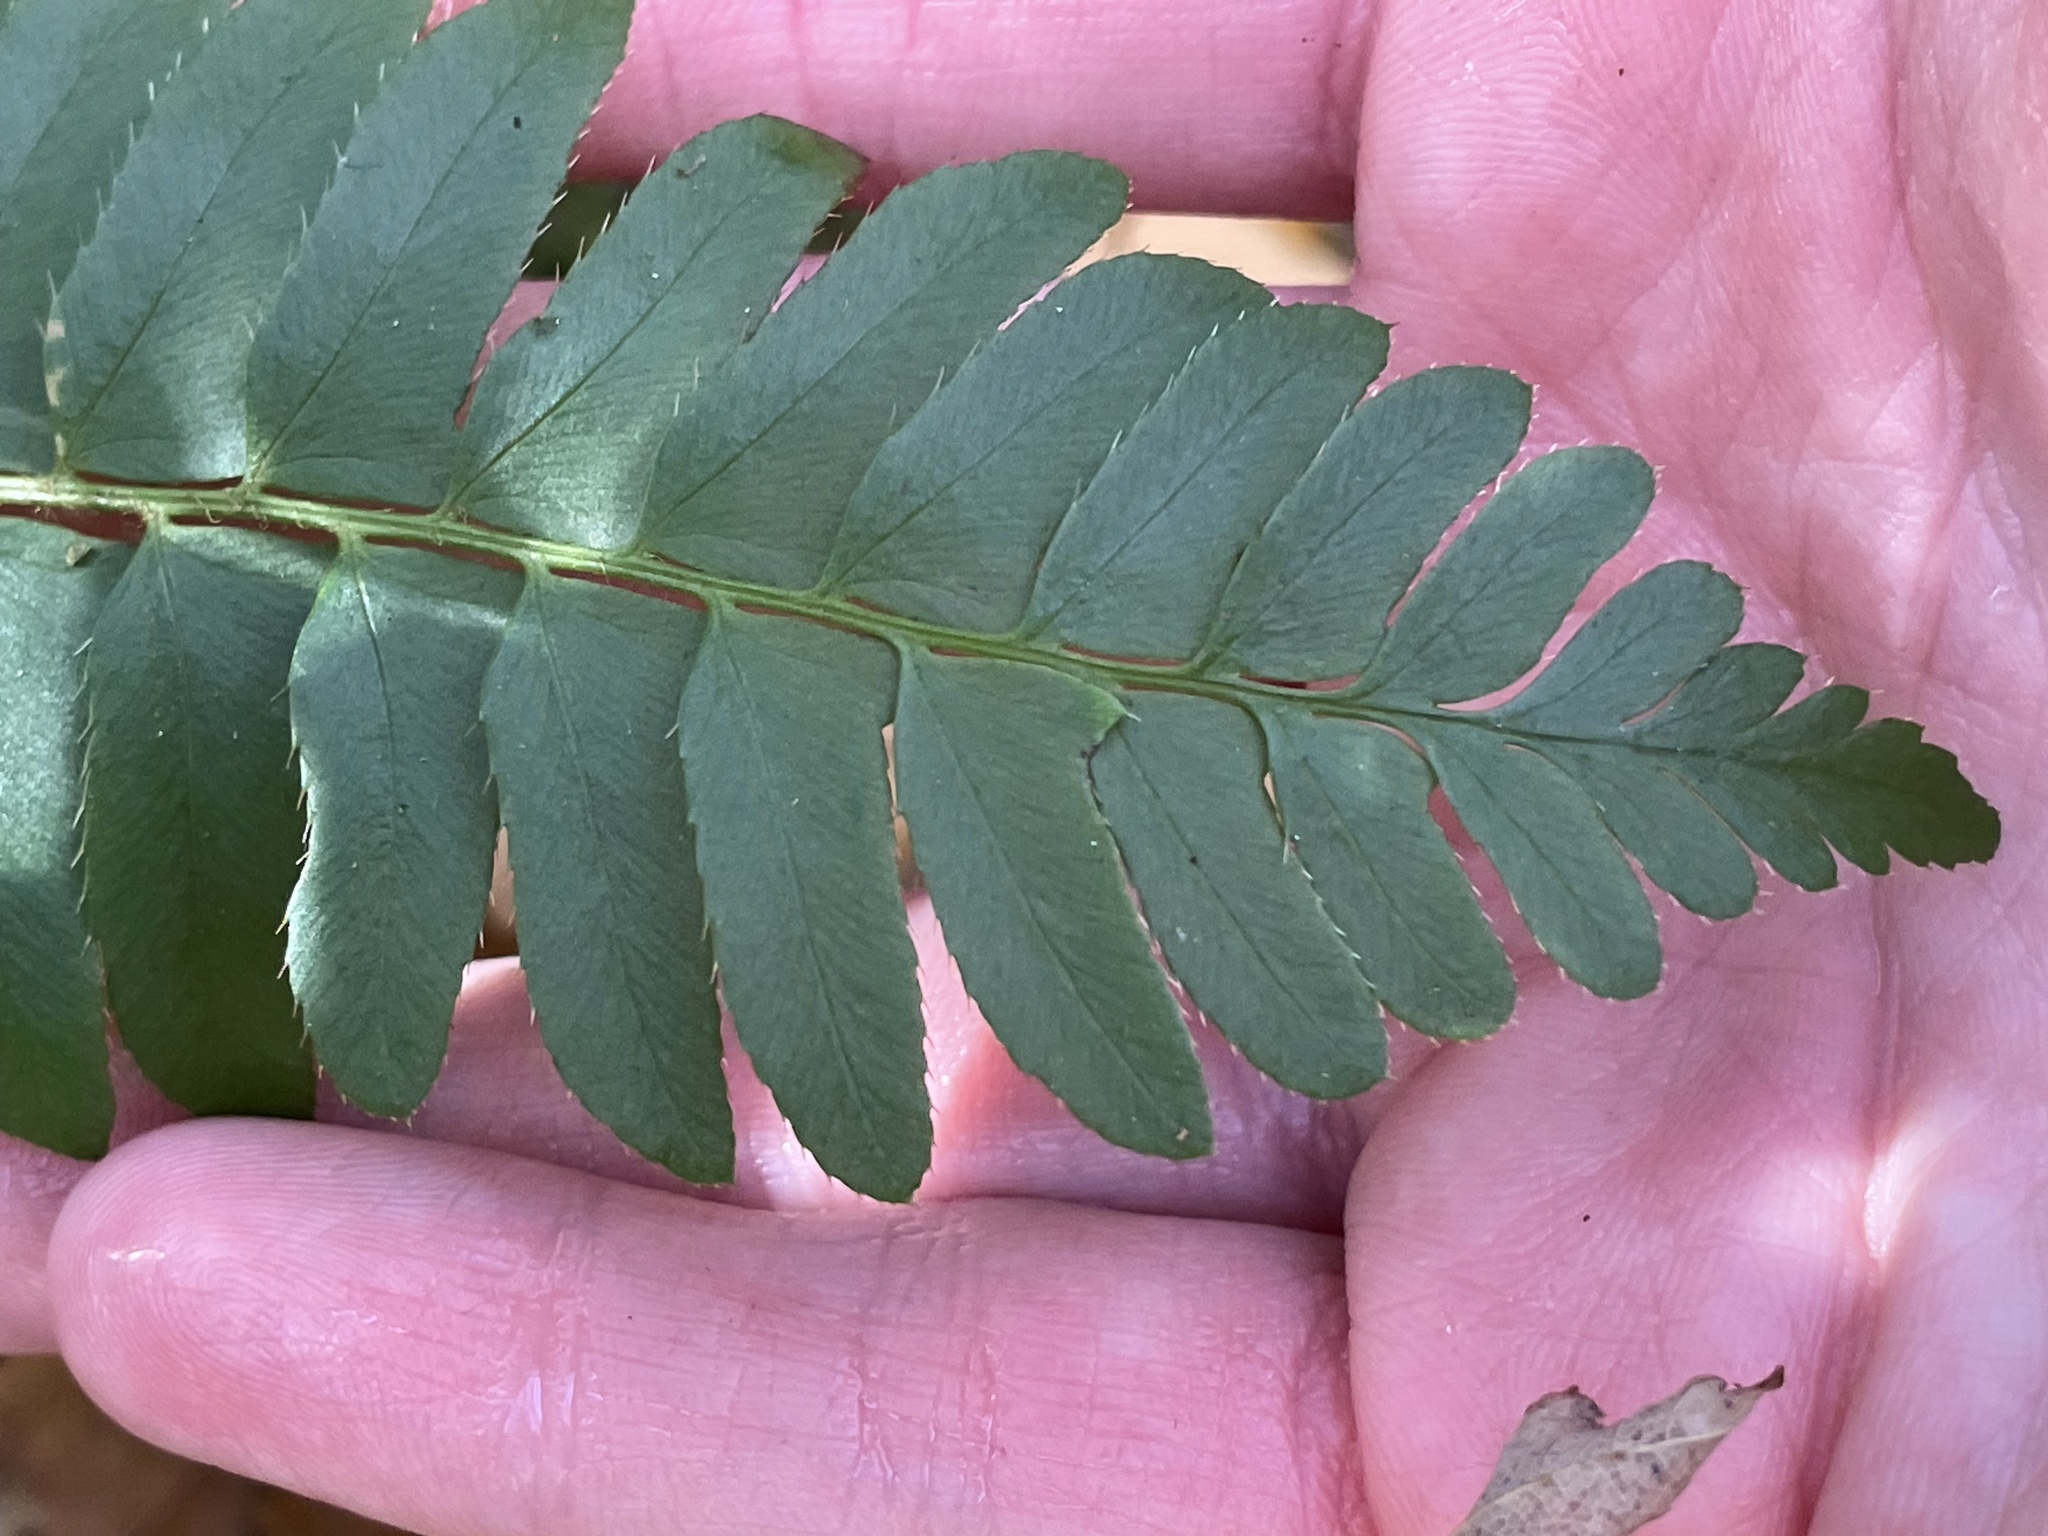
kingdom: Plantae
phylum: Tracheophyta
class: Polypodiopsida
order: Polypodiales
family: Dryopteridaceae
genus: Polystichum
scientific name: Polystichum acrostichoides
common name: Christmas fern
